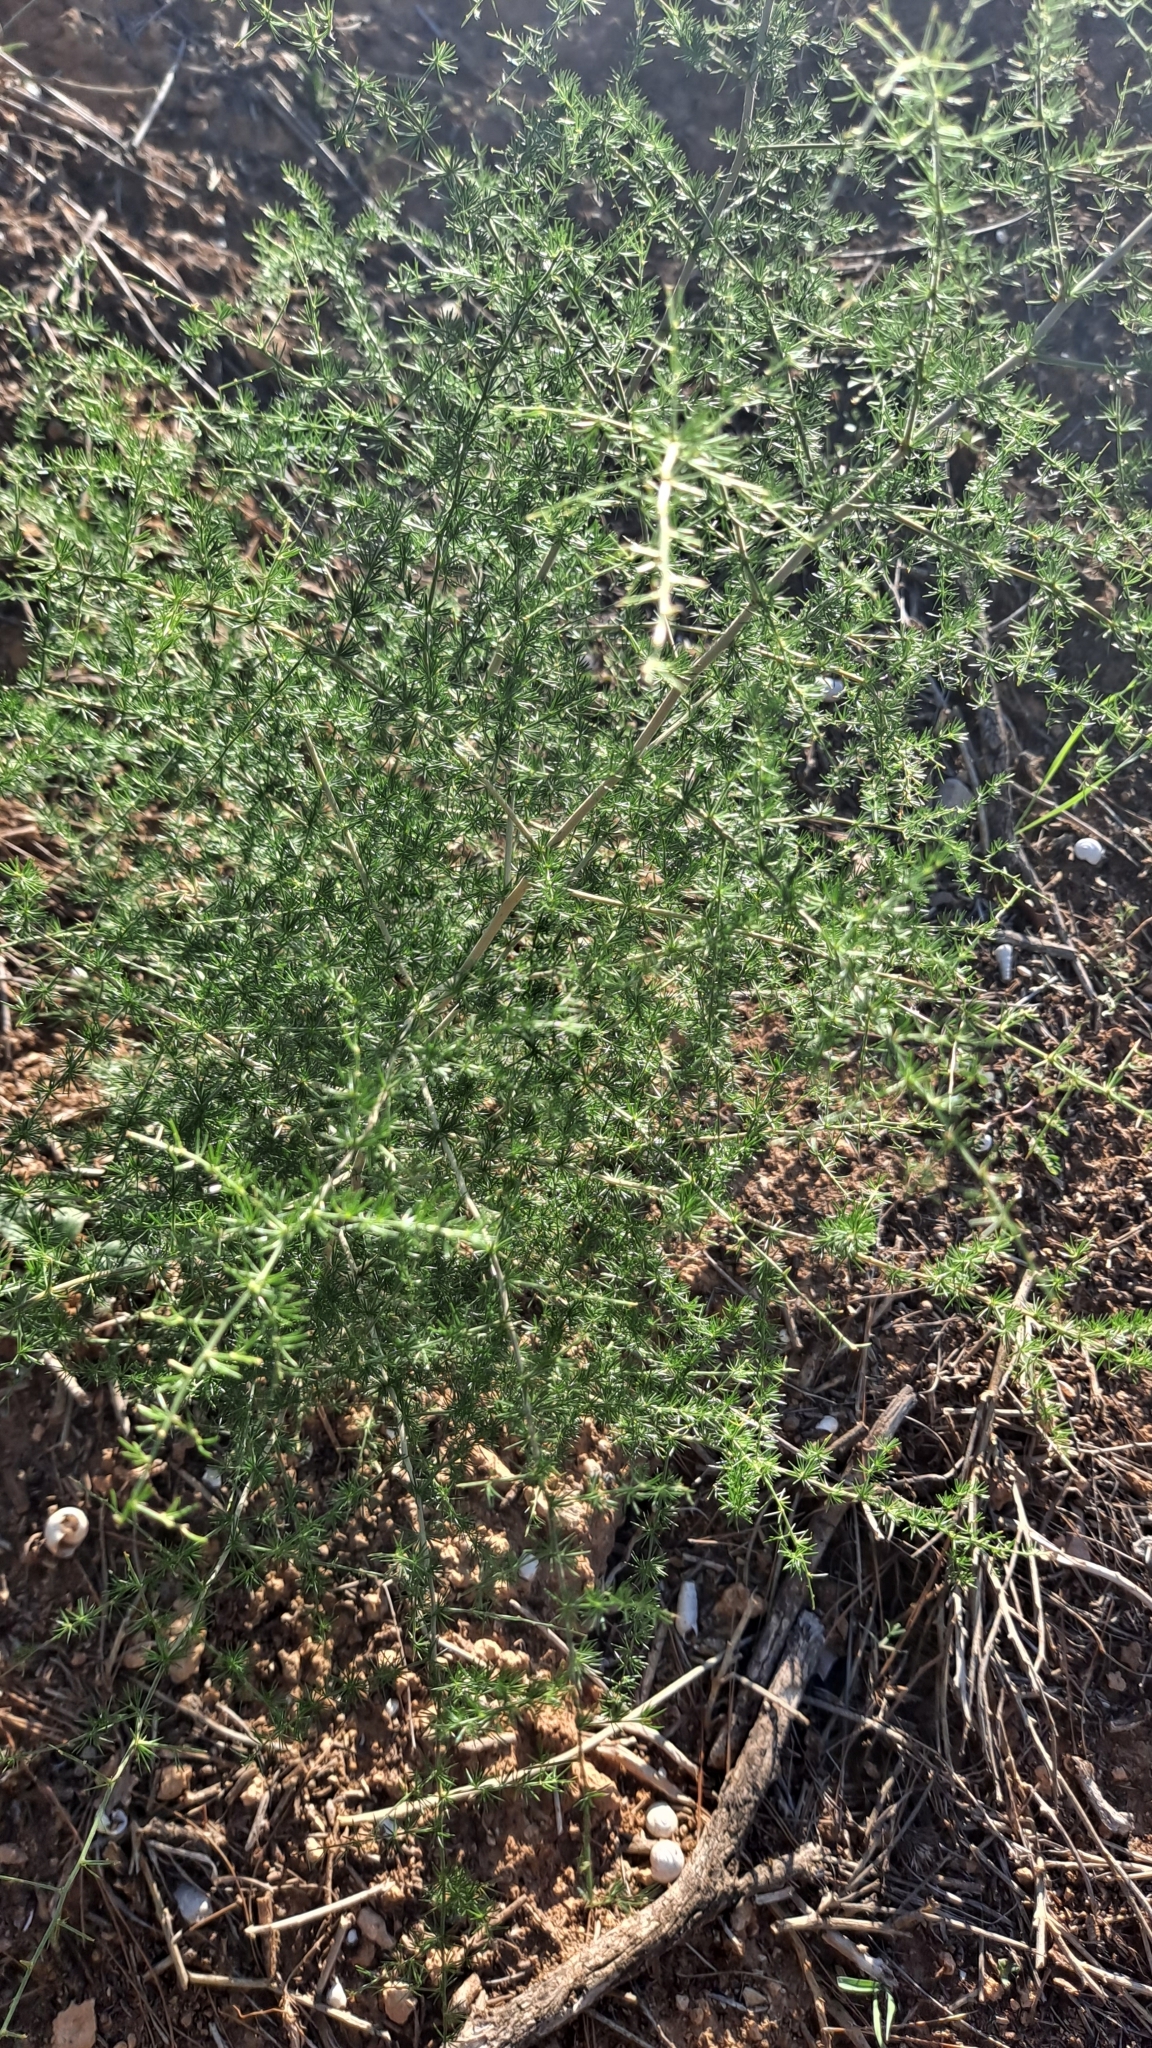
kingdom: Plantae
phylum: Tracheophyta
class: Liliopsida
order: Asparagales
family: Asparagaceae
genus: Asparagus
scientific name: Asparagus acutifolius
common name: Wild asparagus
